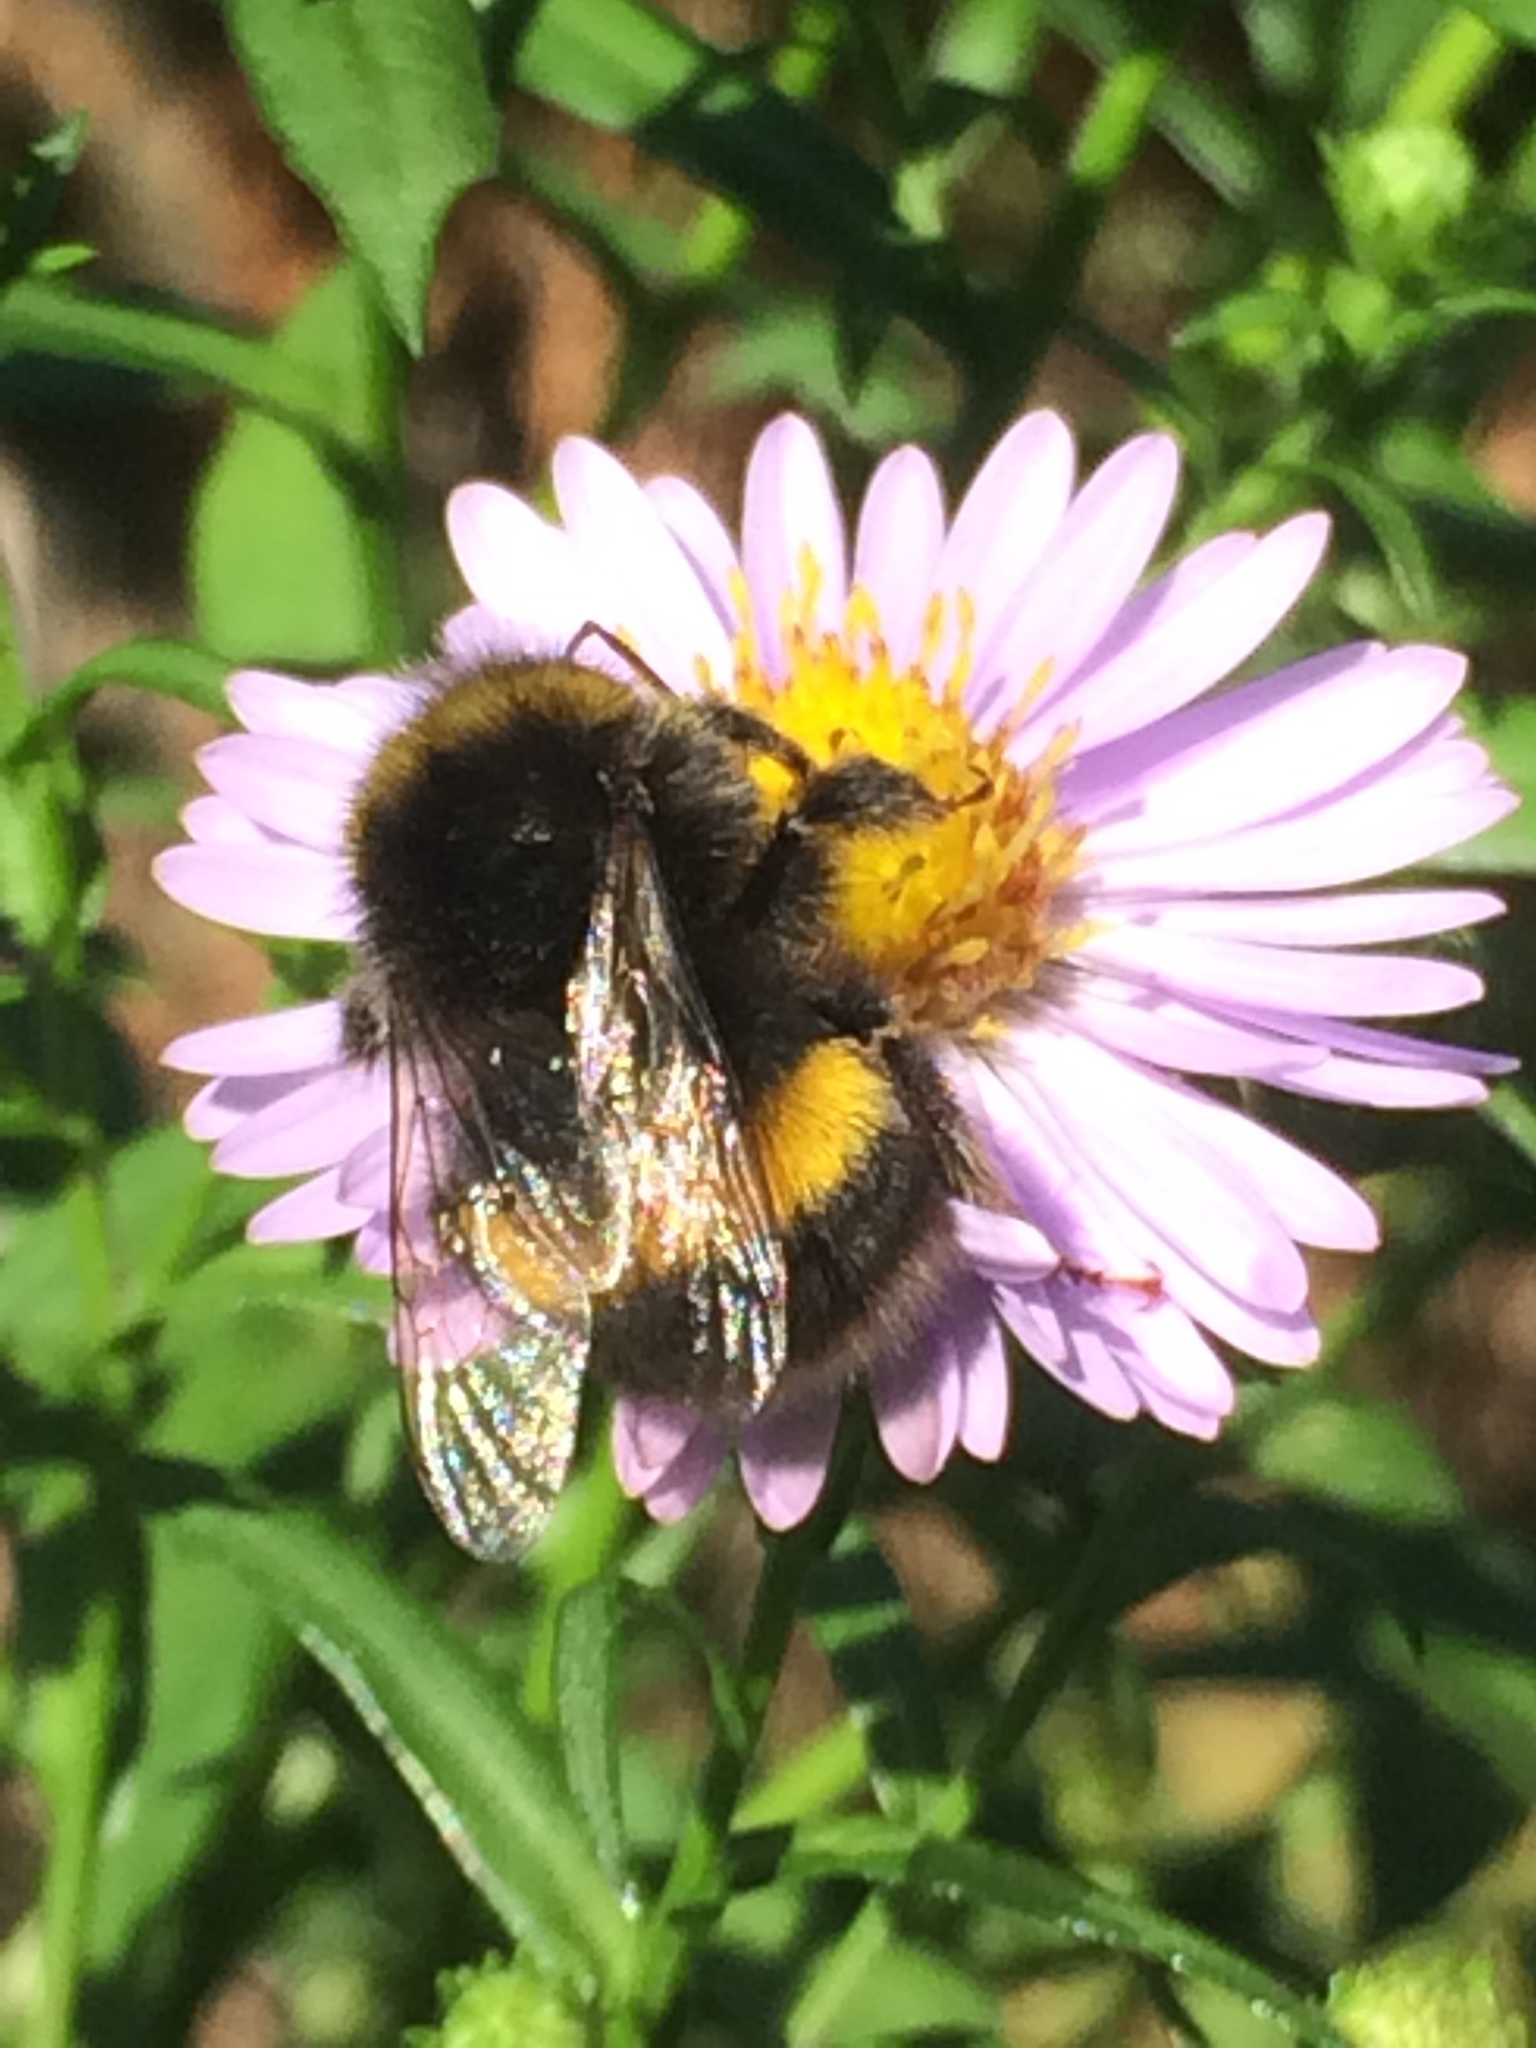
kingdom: Animalia
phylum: Arthropoda
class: Insecta
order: Hymenoptera
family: Apidae
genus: Bombus
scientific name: Bombus terrestris
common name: Buff-tailed bumblebee
